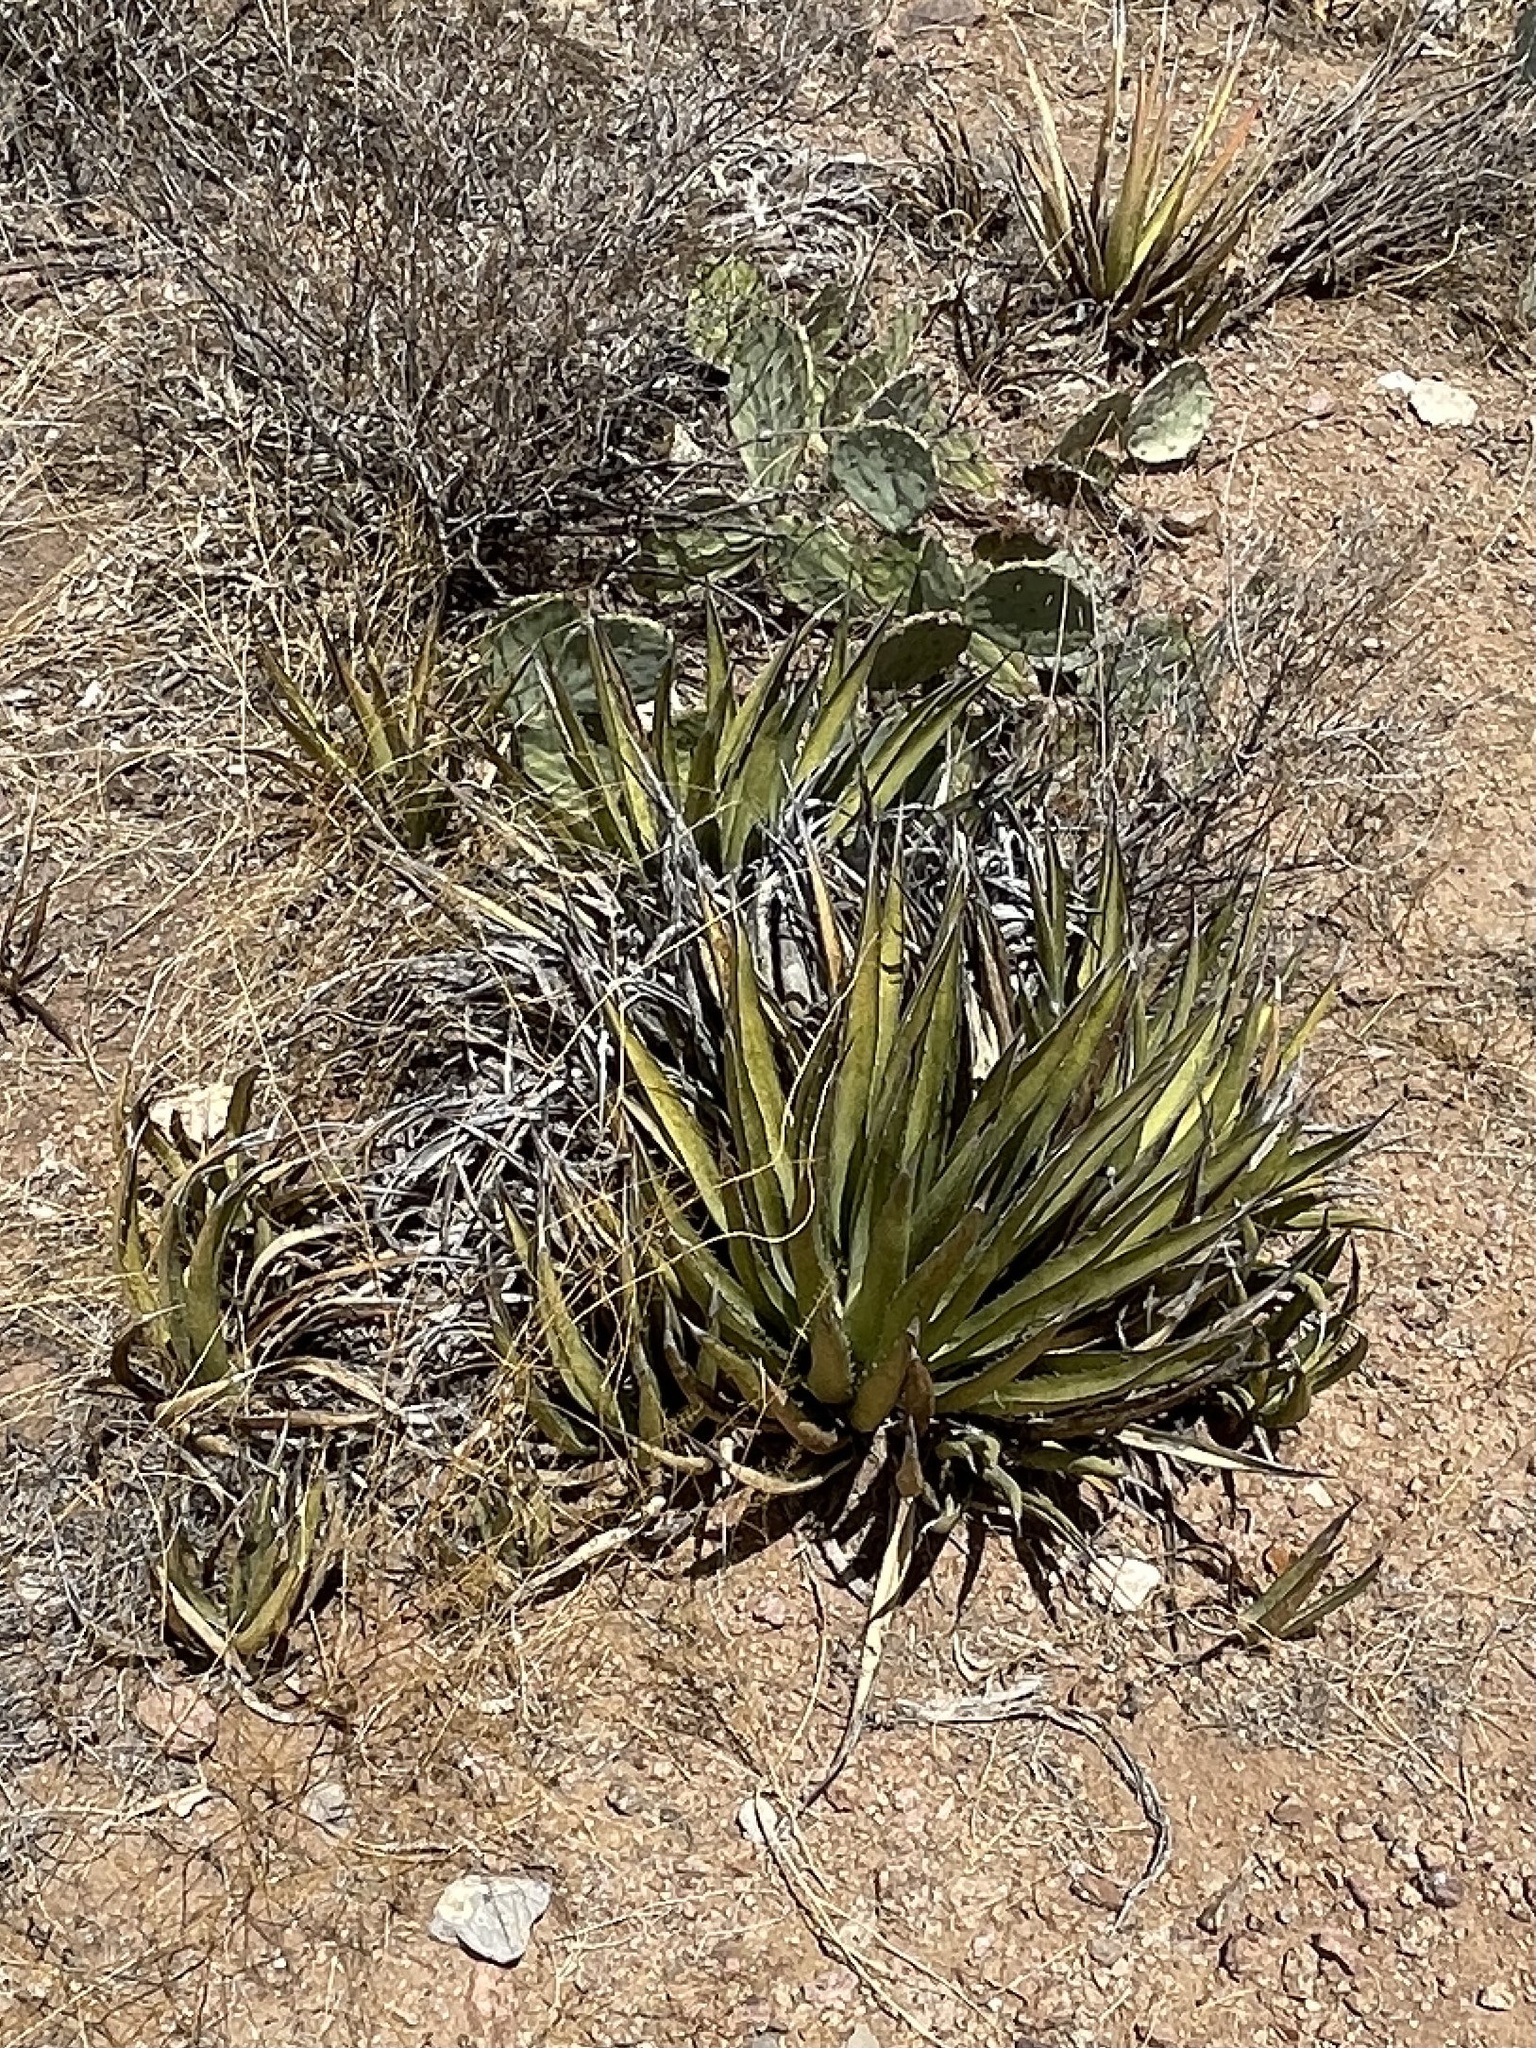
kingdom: Plantae
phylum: Tracheophyta
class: Liliopsida
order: Asparagales
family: Asparagaceae
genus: Agave
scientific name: Agave lechuguilla
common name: Lecheguilla agave
